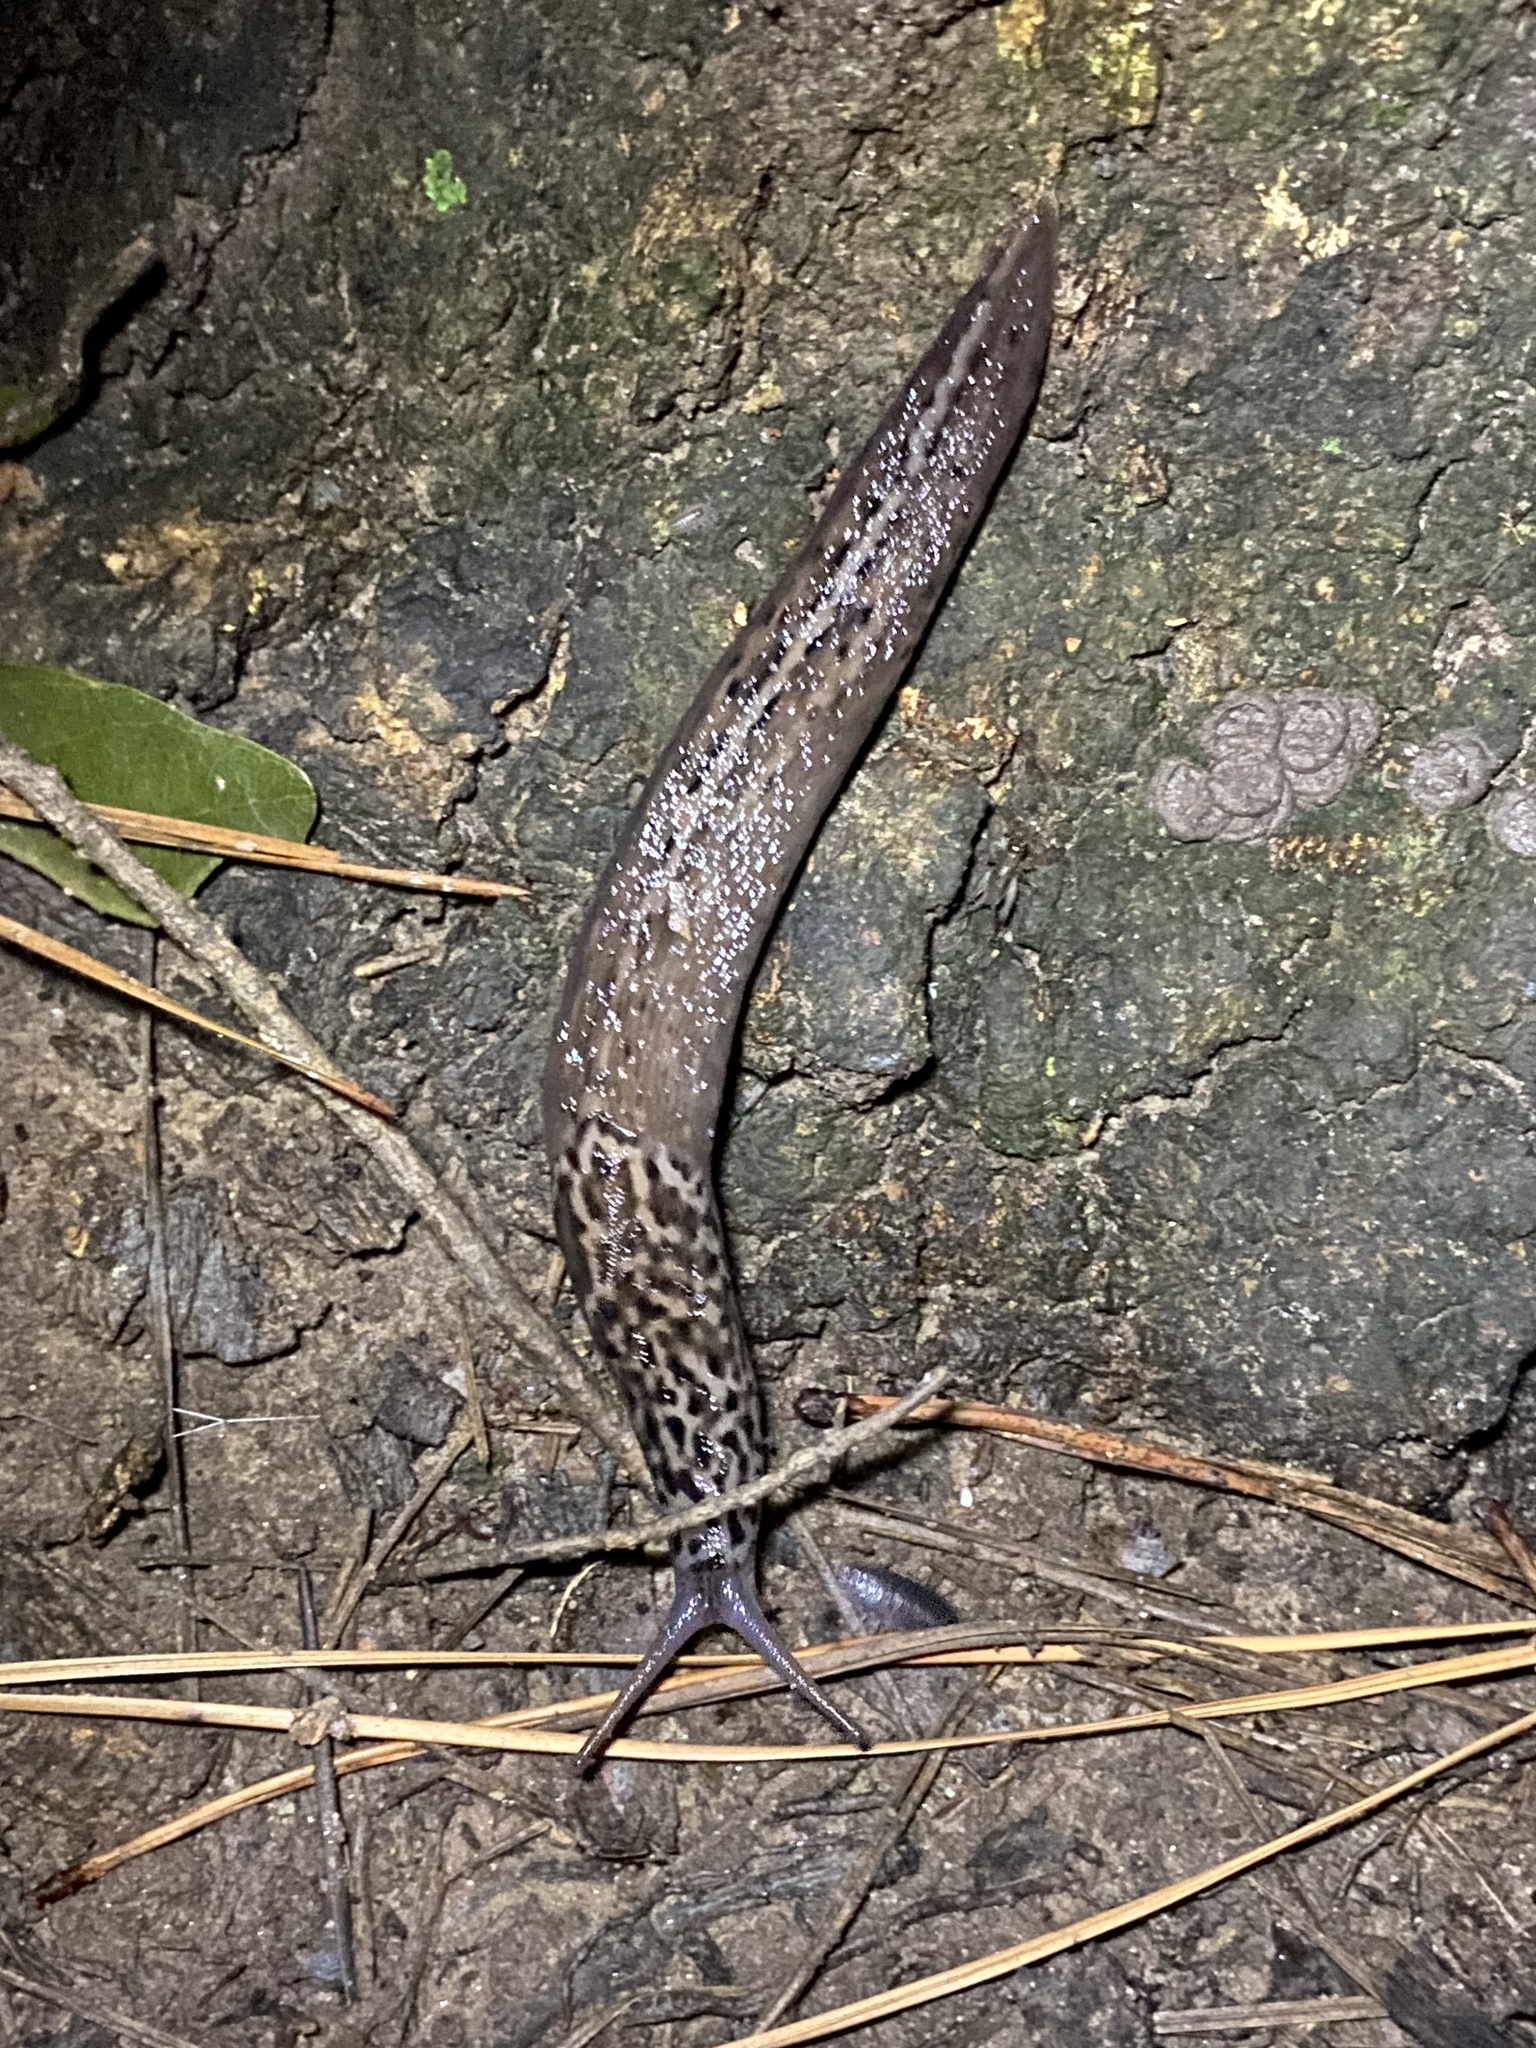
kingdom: Animalia
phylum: Mollusca
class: Gastropoda
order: Stylommatophora
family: Limacidae
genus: Limax
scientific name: Limax maximus
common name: Great grey slug
